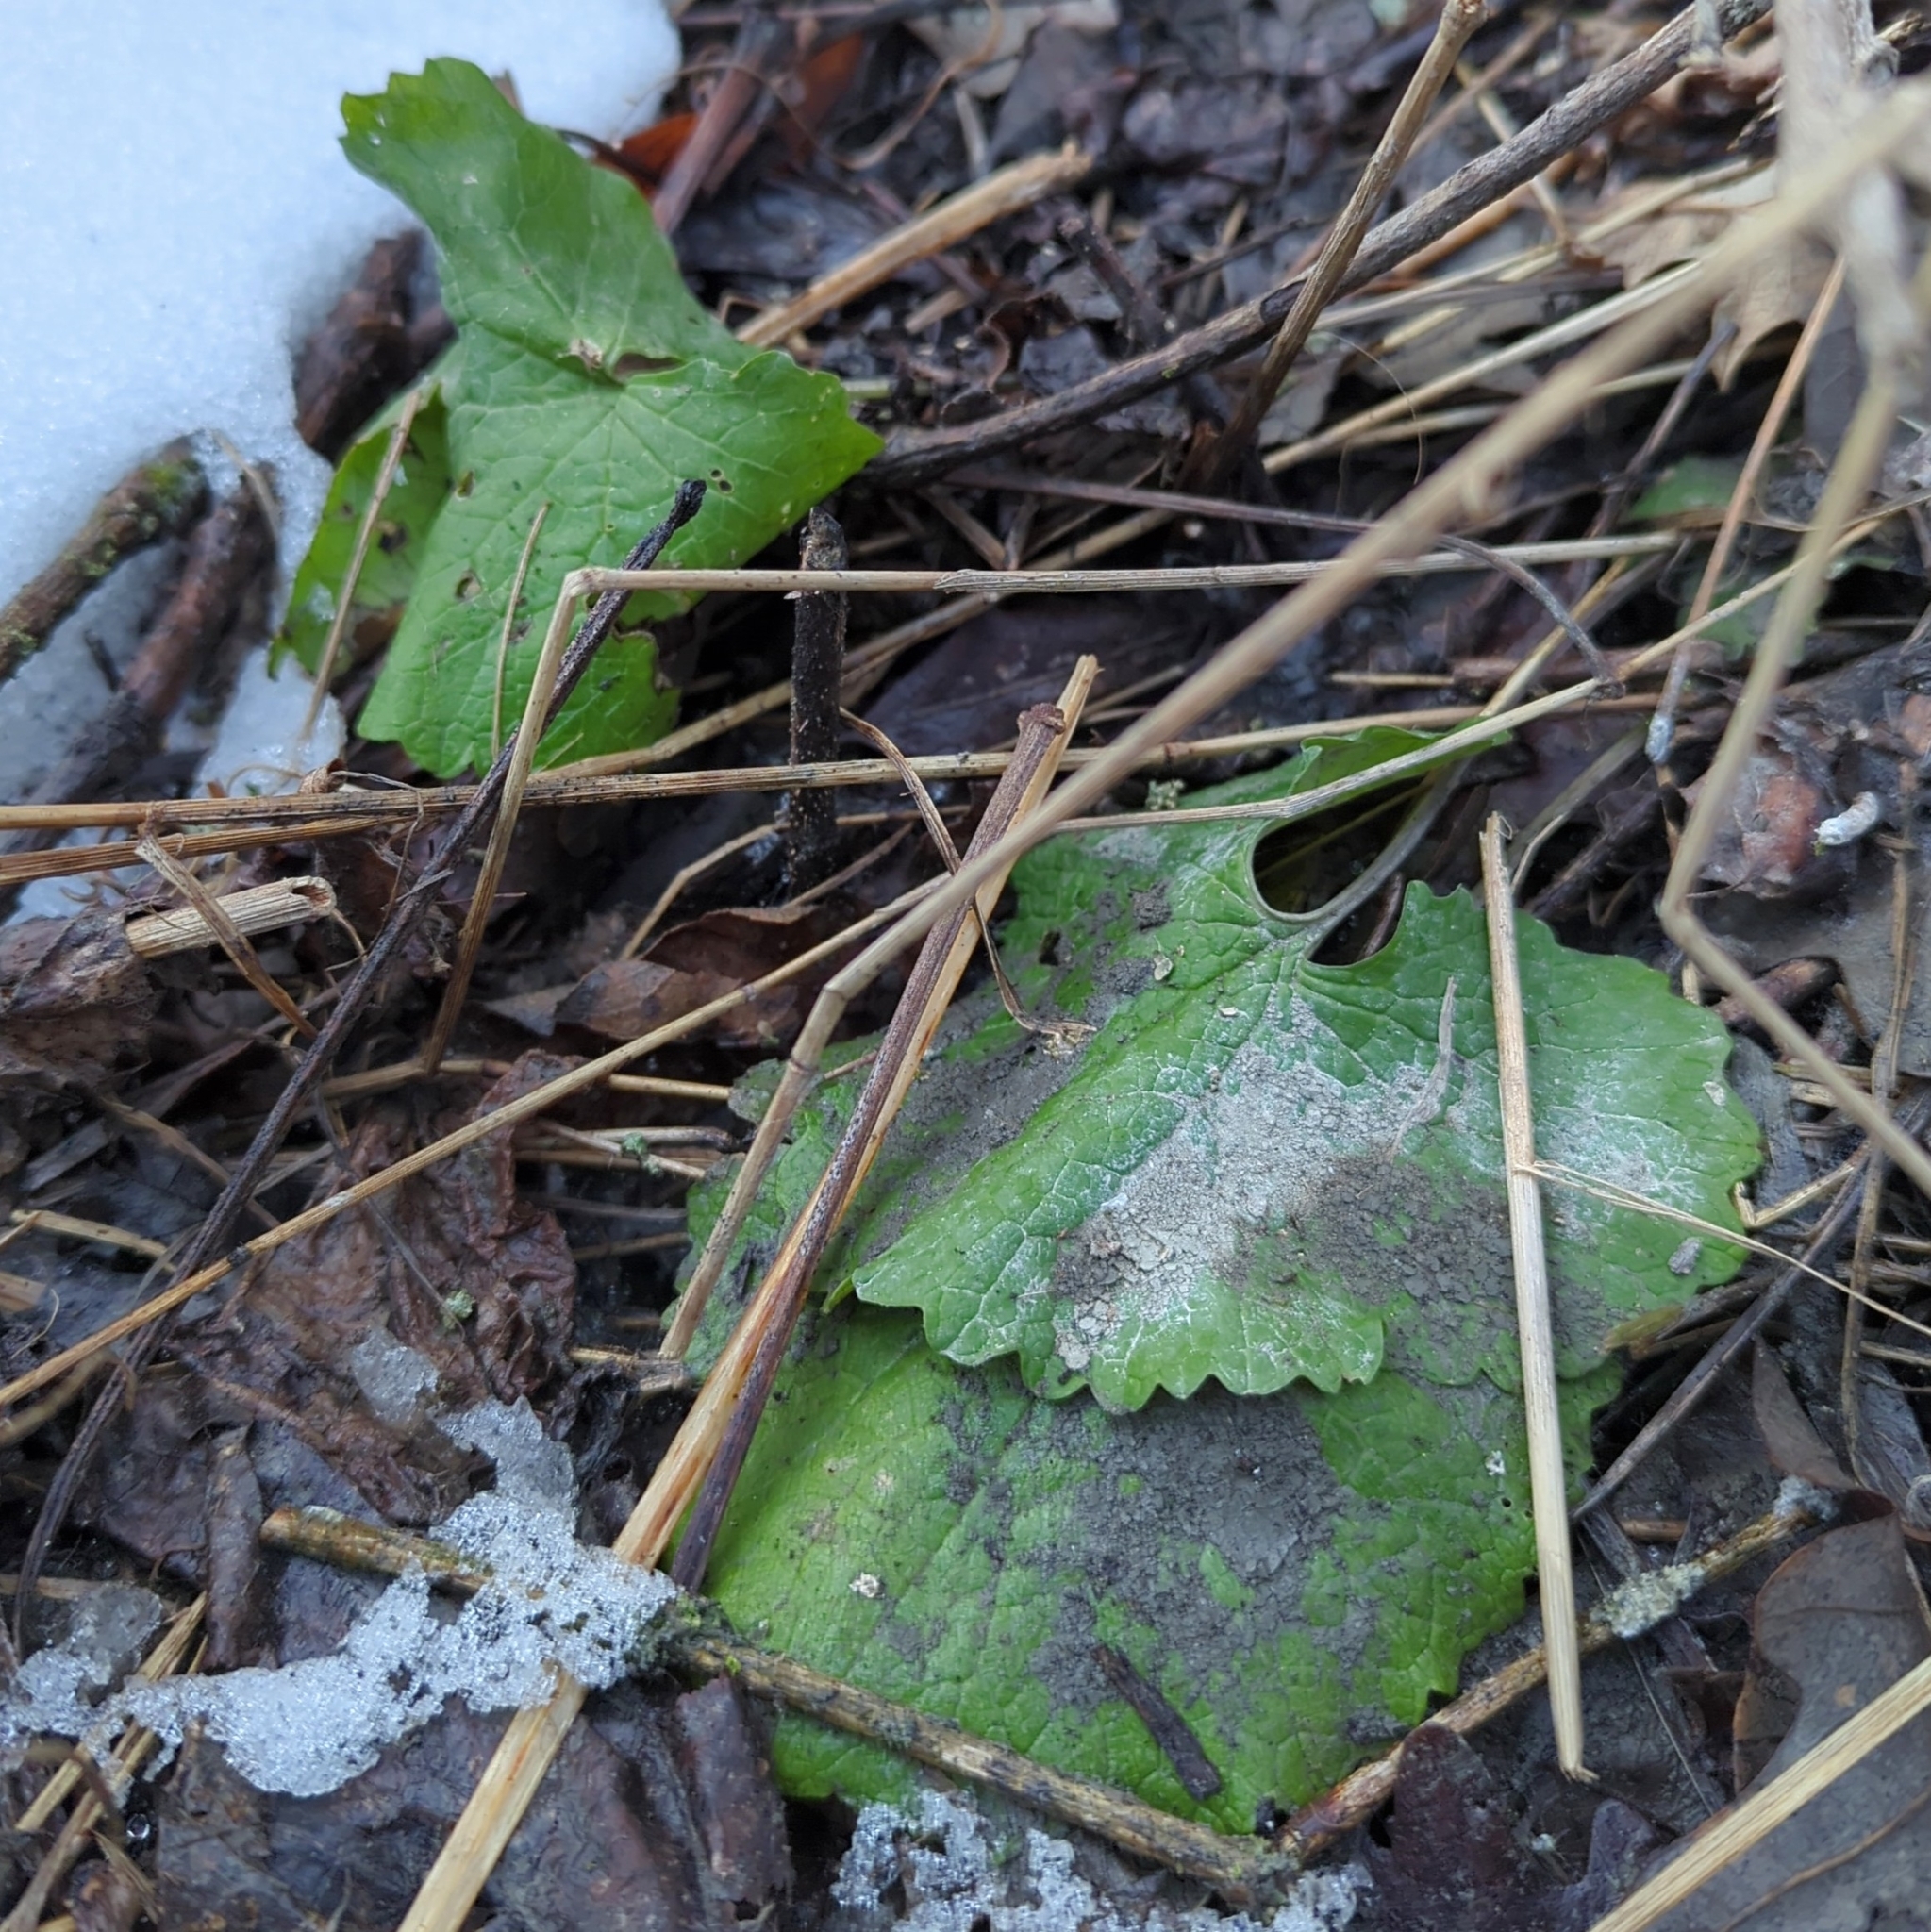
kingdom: Plantae
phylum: Tracheophyta
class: Magnoliopsida
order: Brassicales
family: Brassicaceae
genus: Alliaria
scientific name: Alliaria petiolata
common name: Garlic mustard
